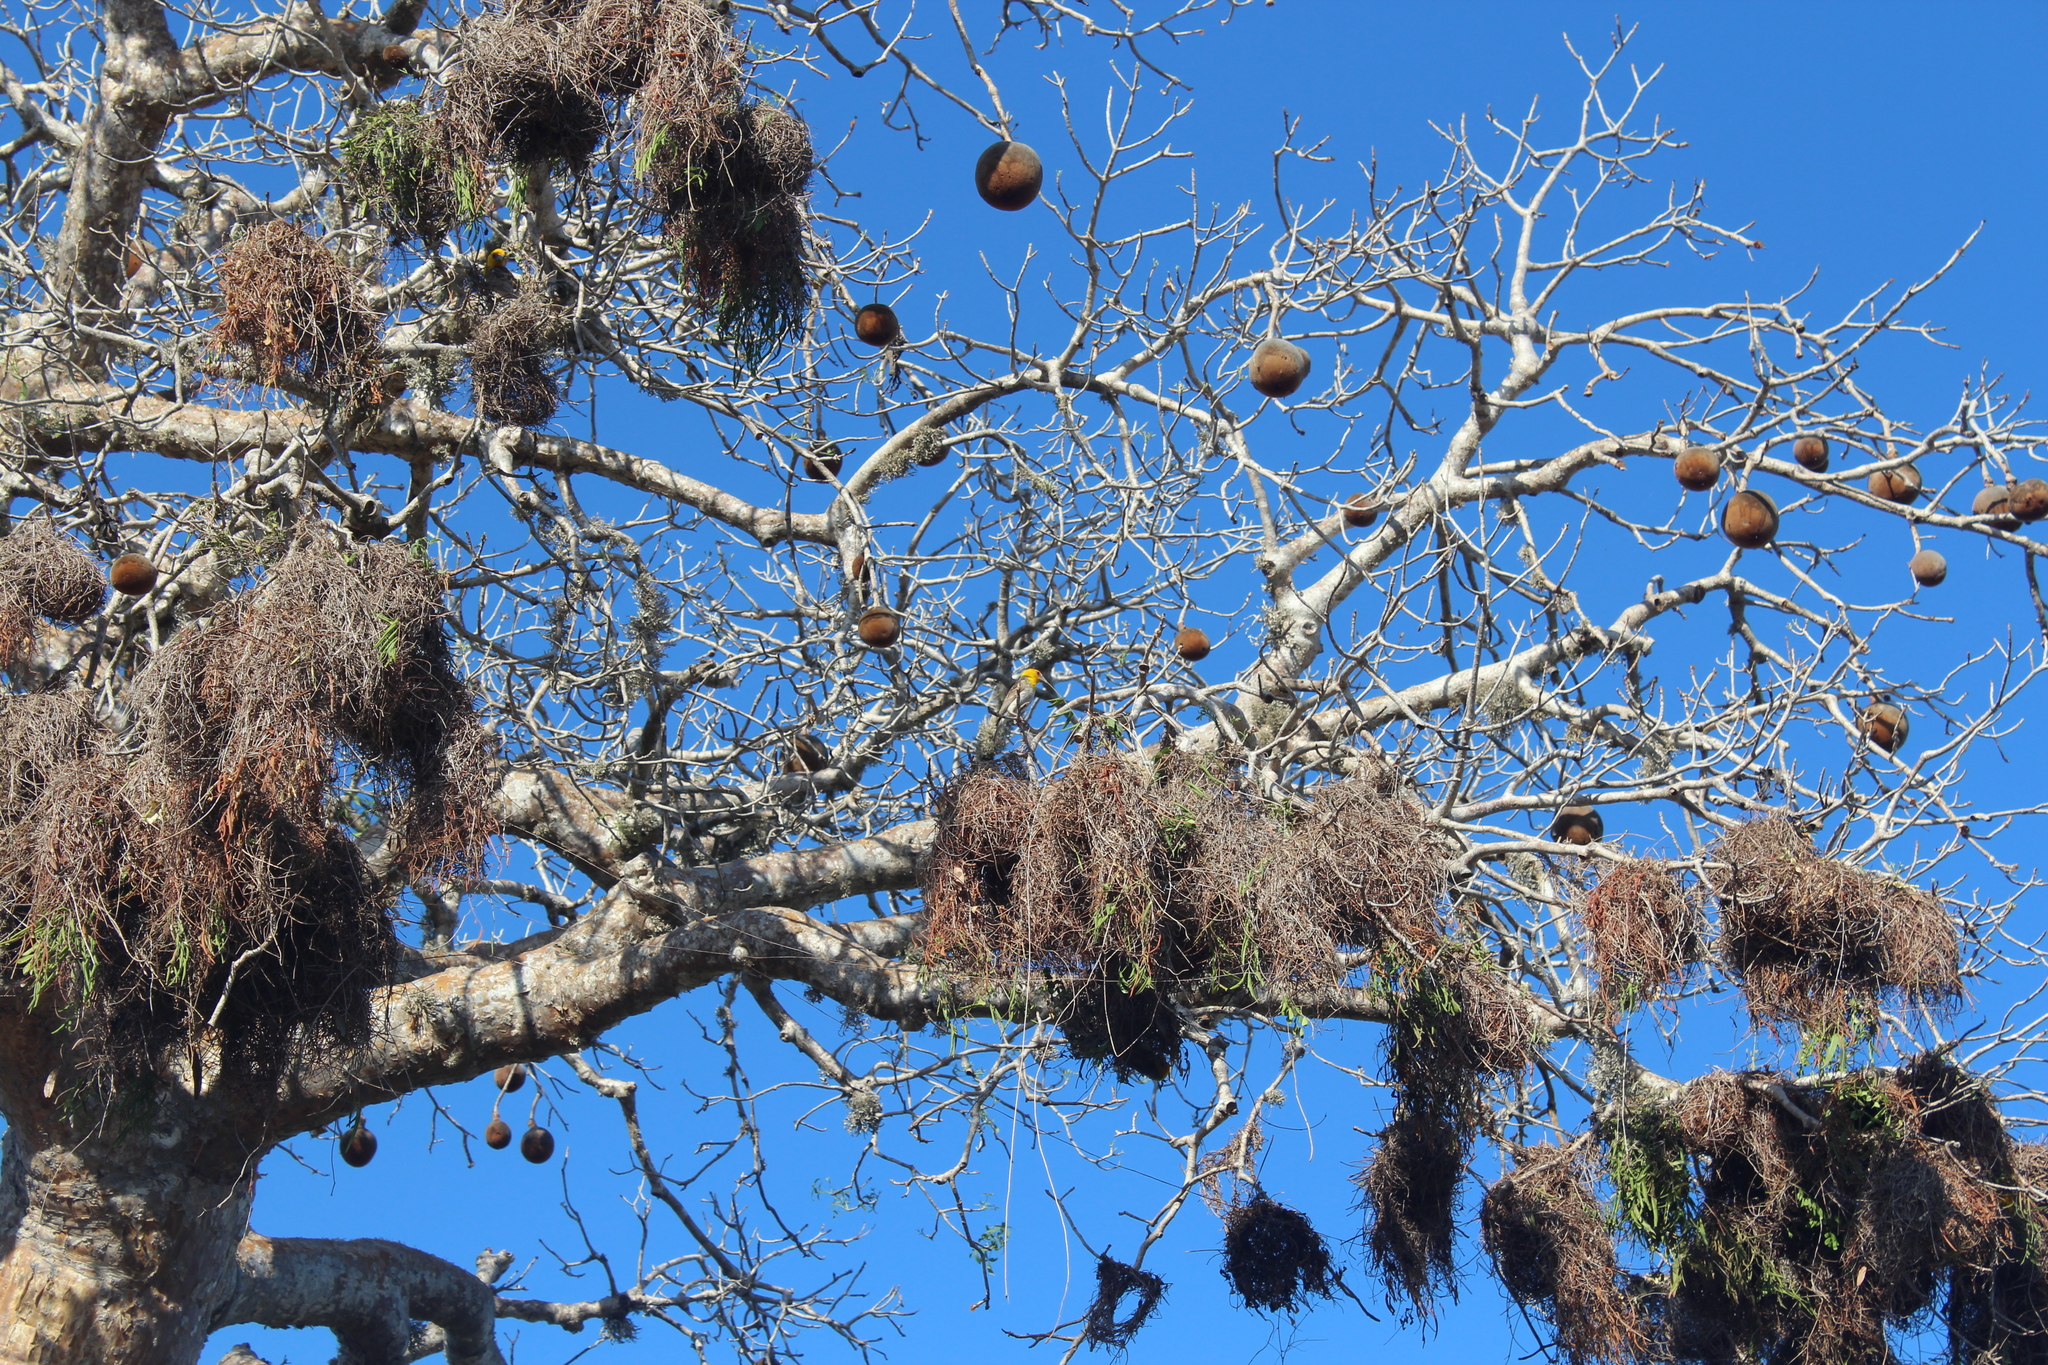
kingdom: Animalia
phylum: Chordata
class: Aves
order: Passeriformes
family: Ploceidae
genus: Ploceus
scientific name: Ploceus sakalava
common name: Sakalava weaver
